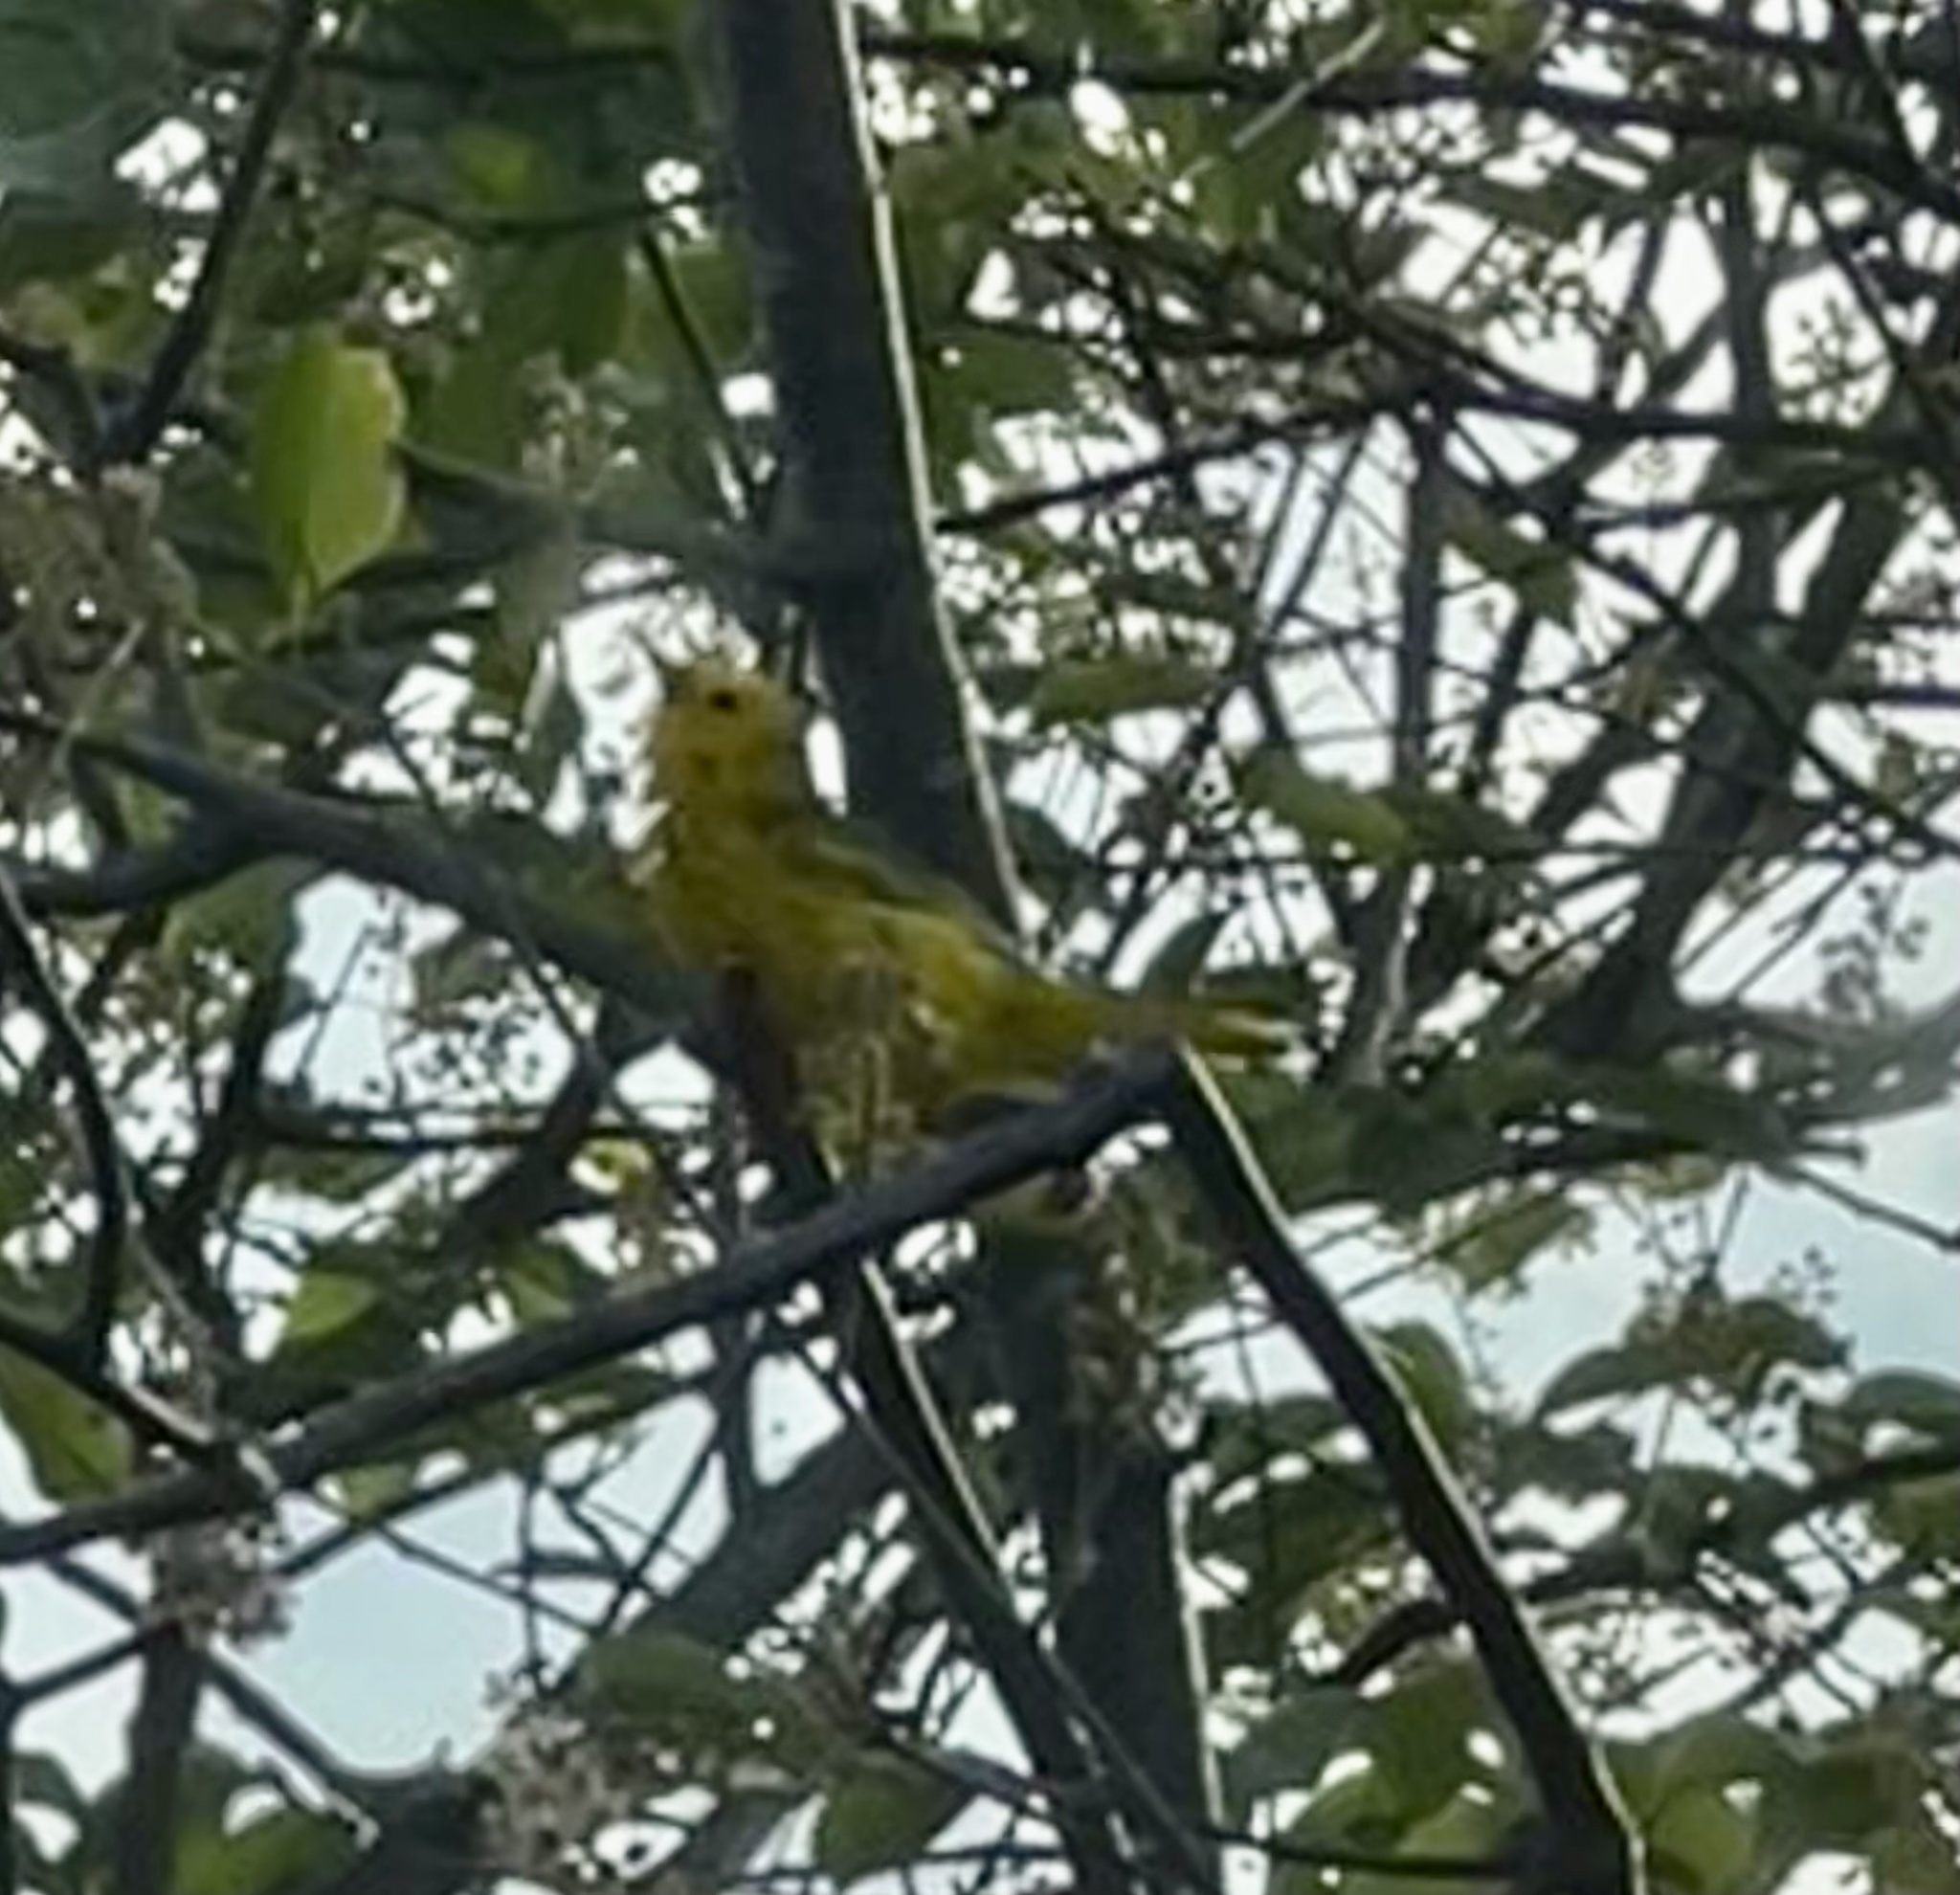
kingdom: Animalia
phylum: Chordata
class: Aves
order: Passeriformes
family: Parulidae
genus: Setophaga
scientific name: Setophaga petechia
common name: Yellow warbler
